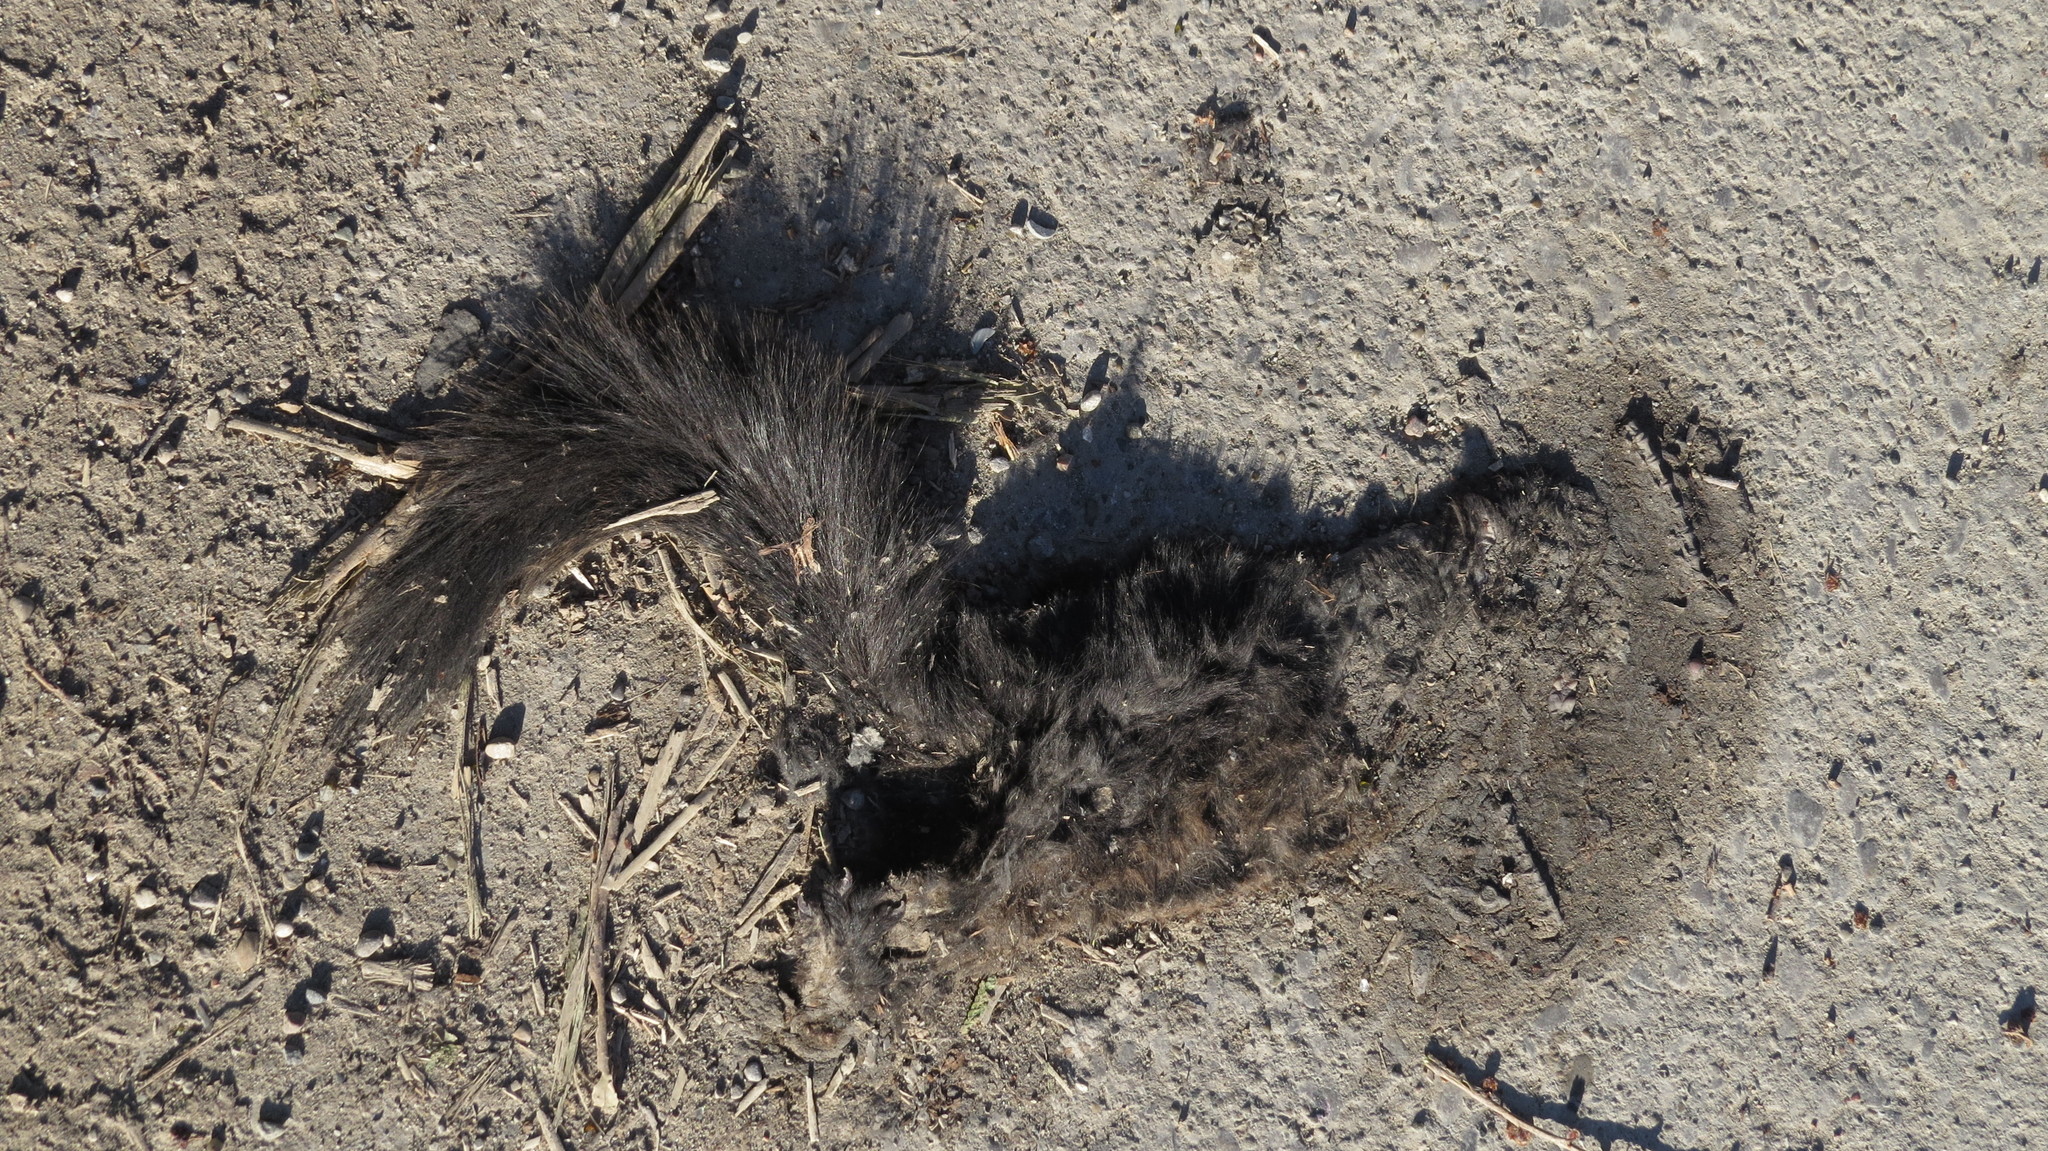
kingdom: Animalia
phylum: Chordata
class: Mammalia
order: Rodentia
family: Sciuridae
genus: Sciurus
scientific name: Sciurus carolinensis
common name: Eastern gray squirrel
